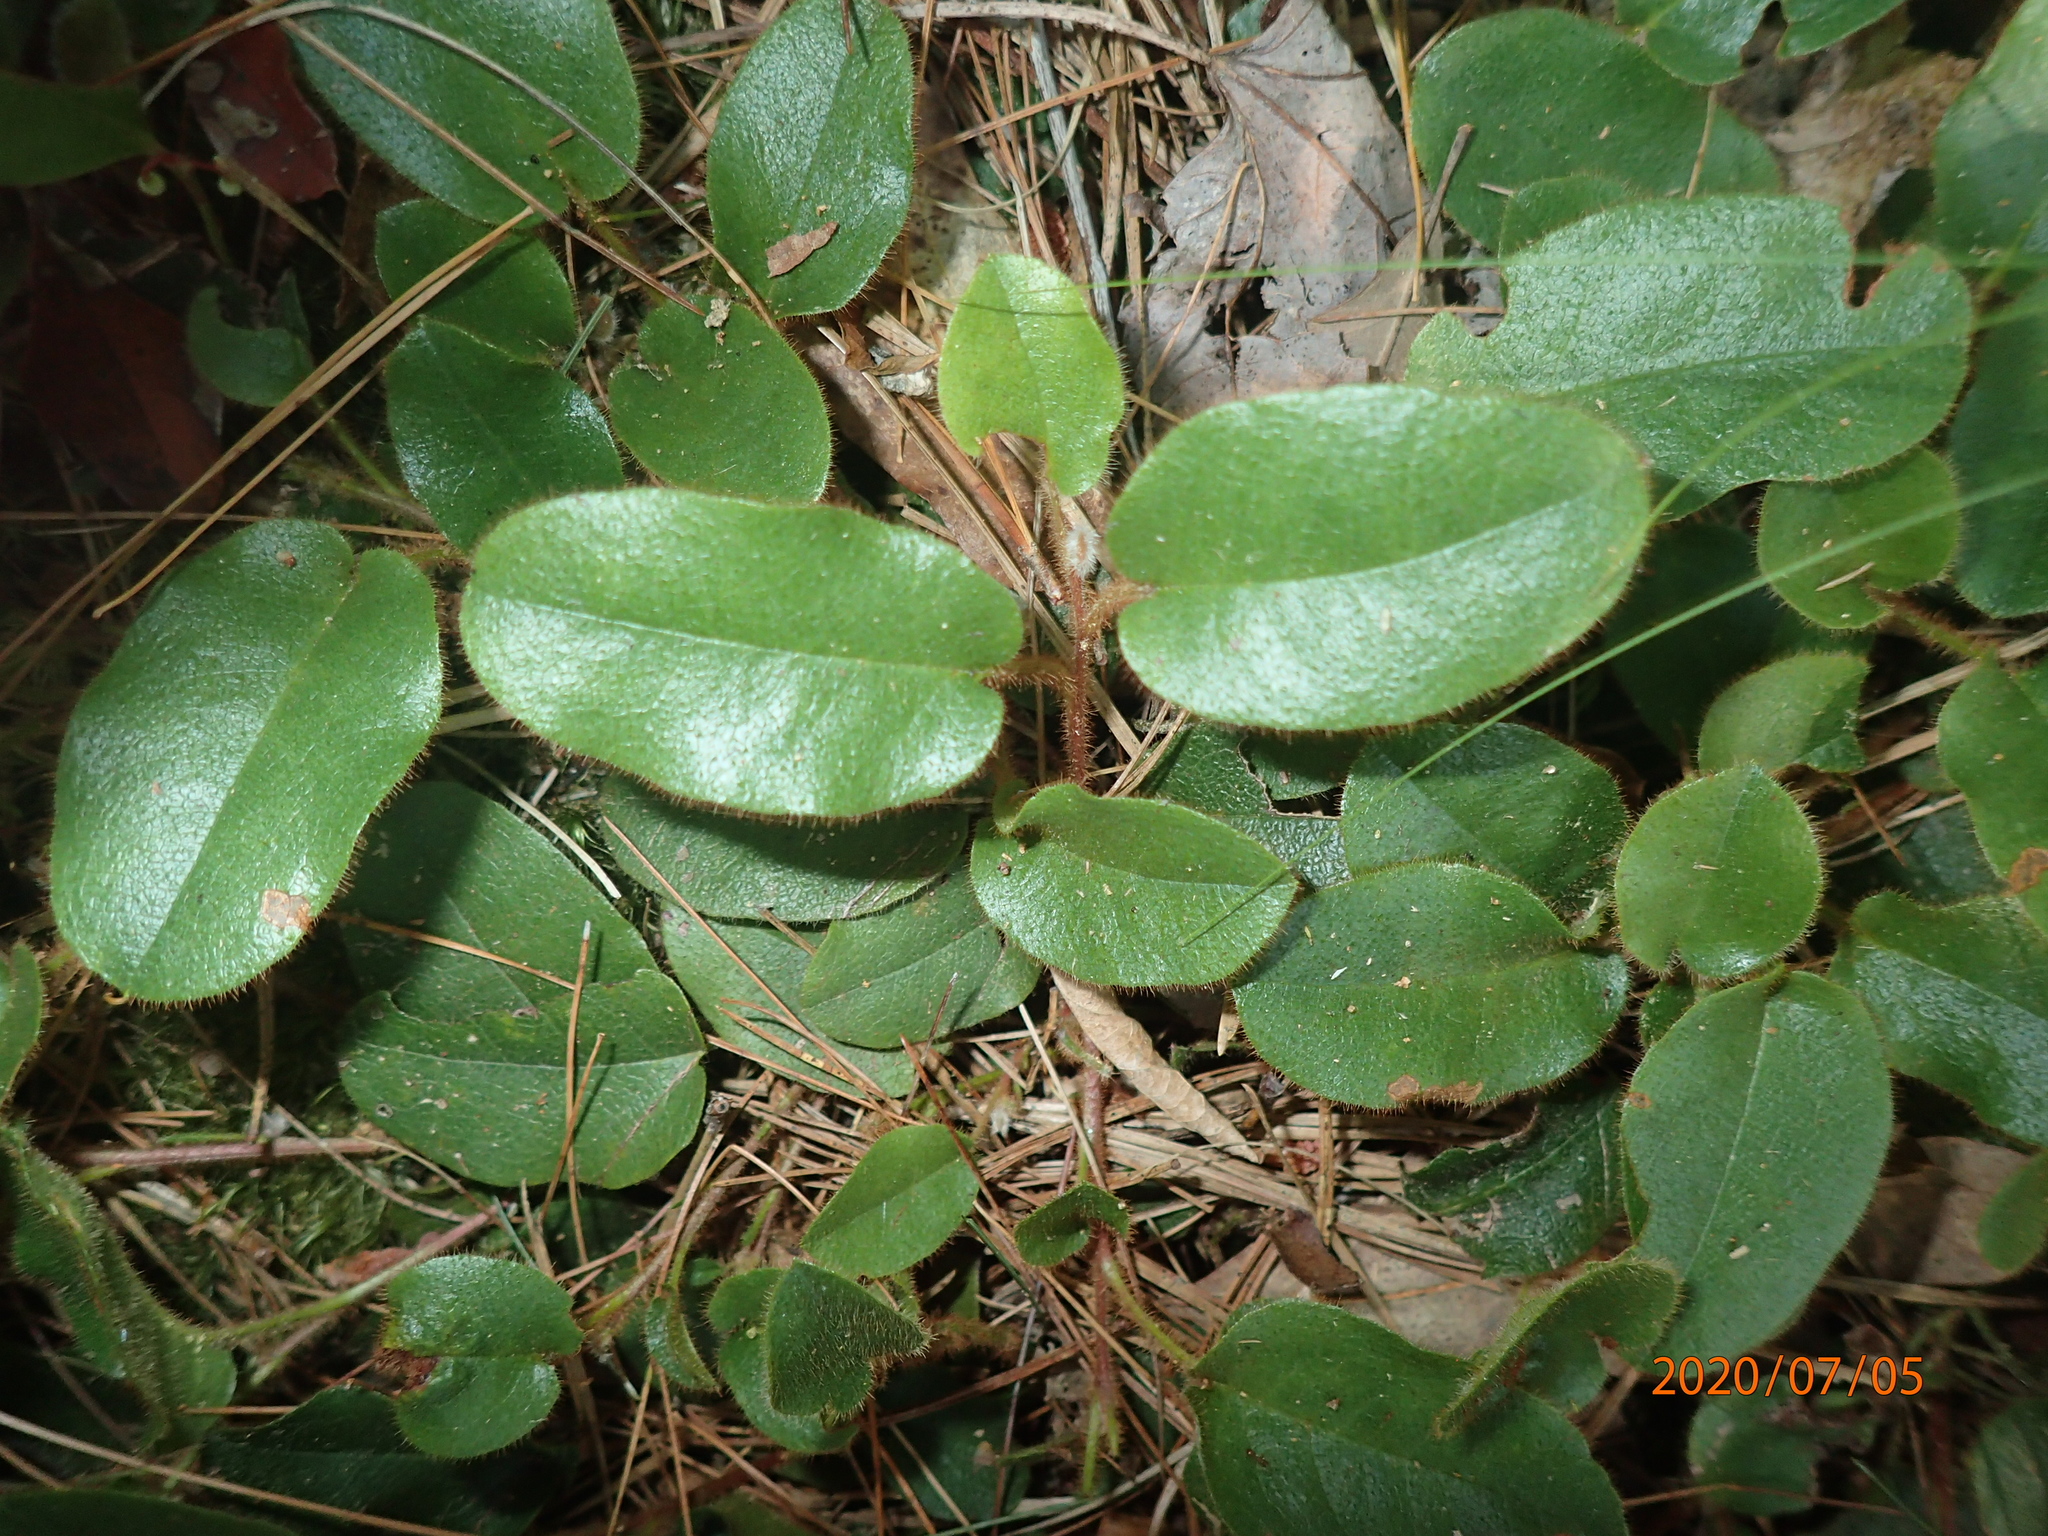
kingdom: Plantae
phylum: Tracheophyta
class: Magnoliopsida
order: Ericales
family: Ericaceae
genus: Epigaea
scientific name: Epigaea repens
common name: Gravelroot
